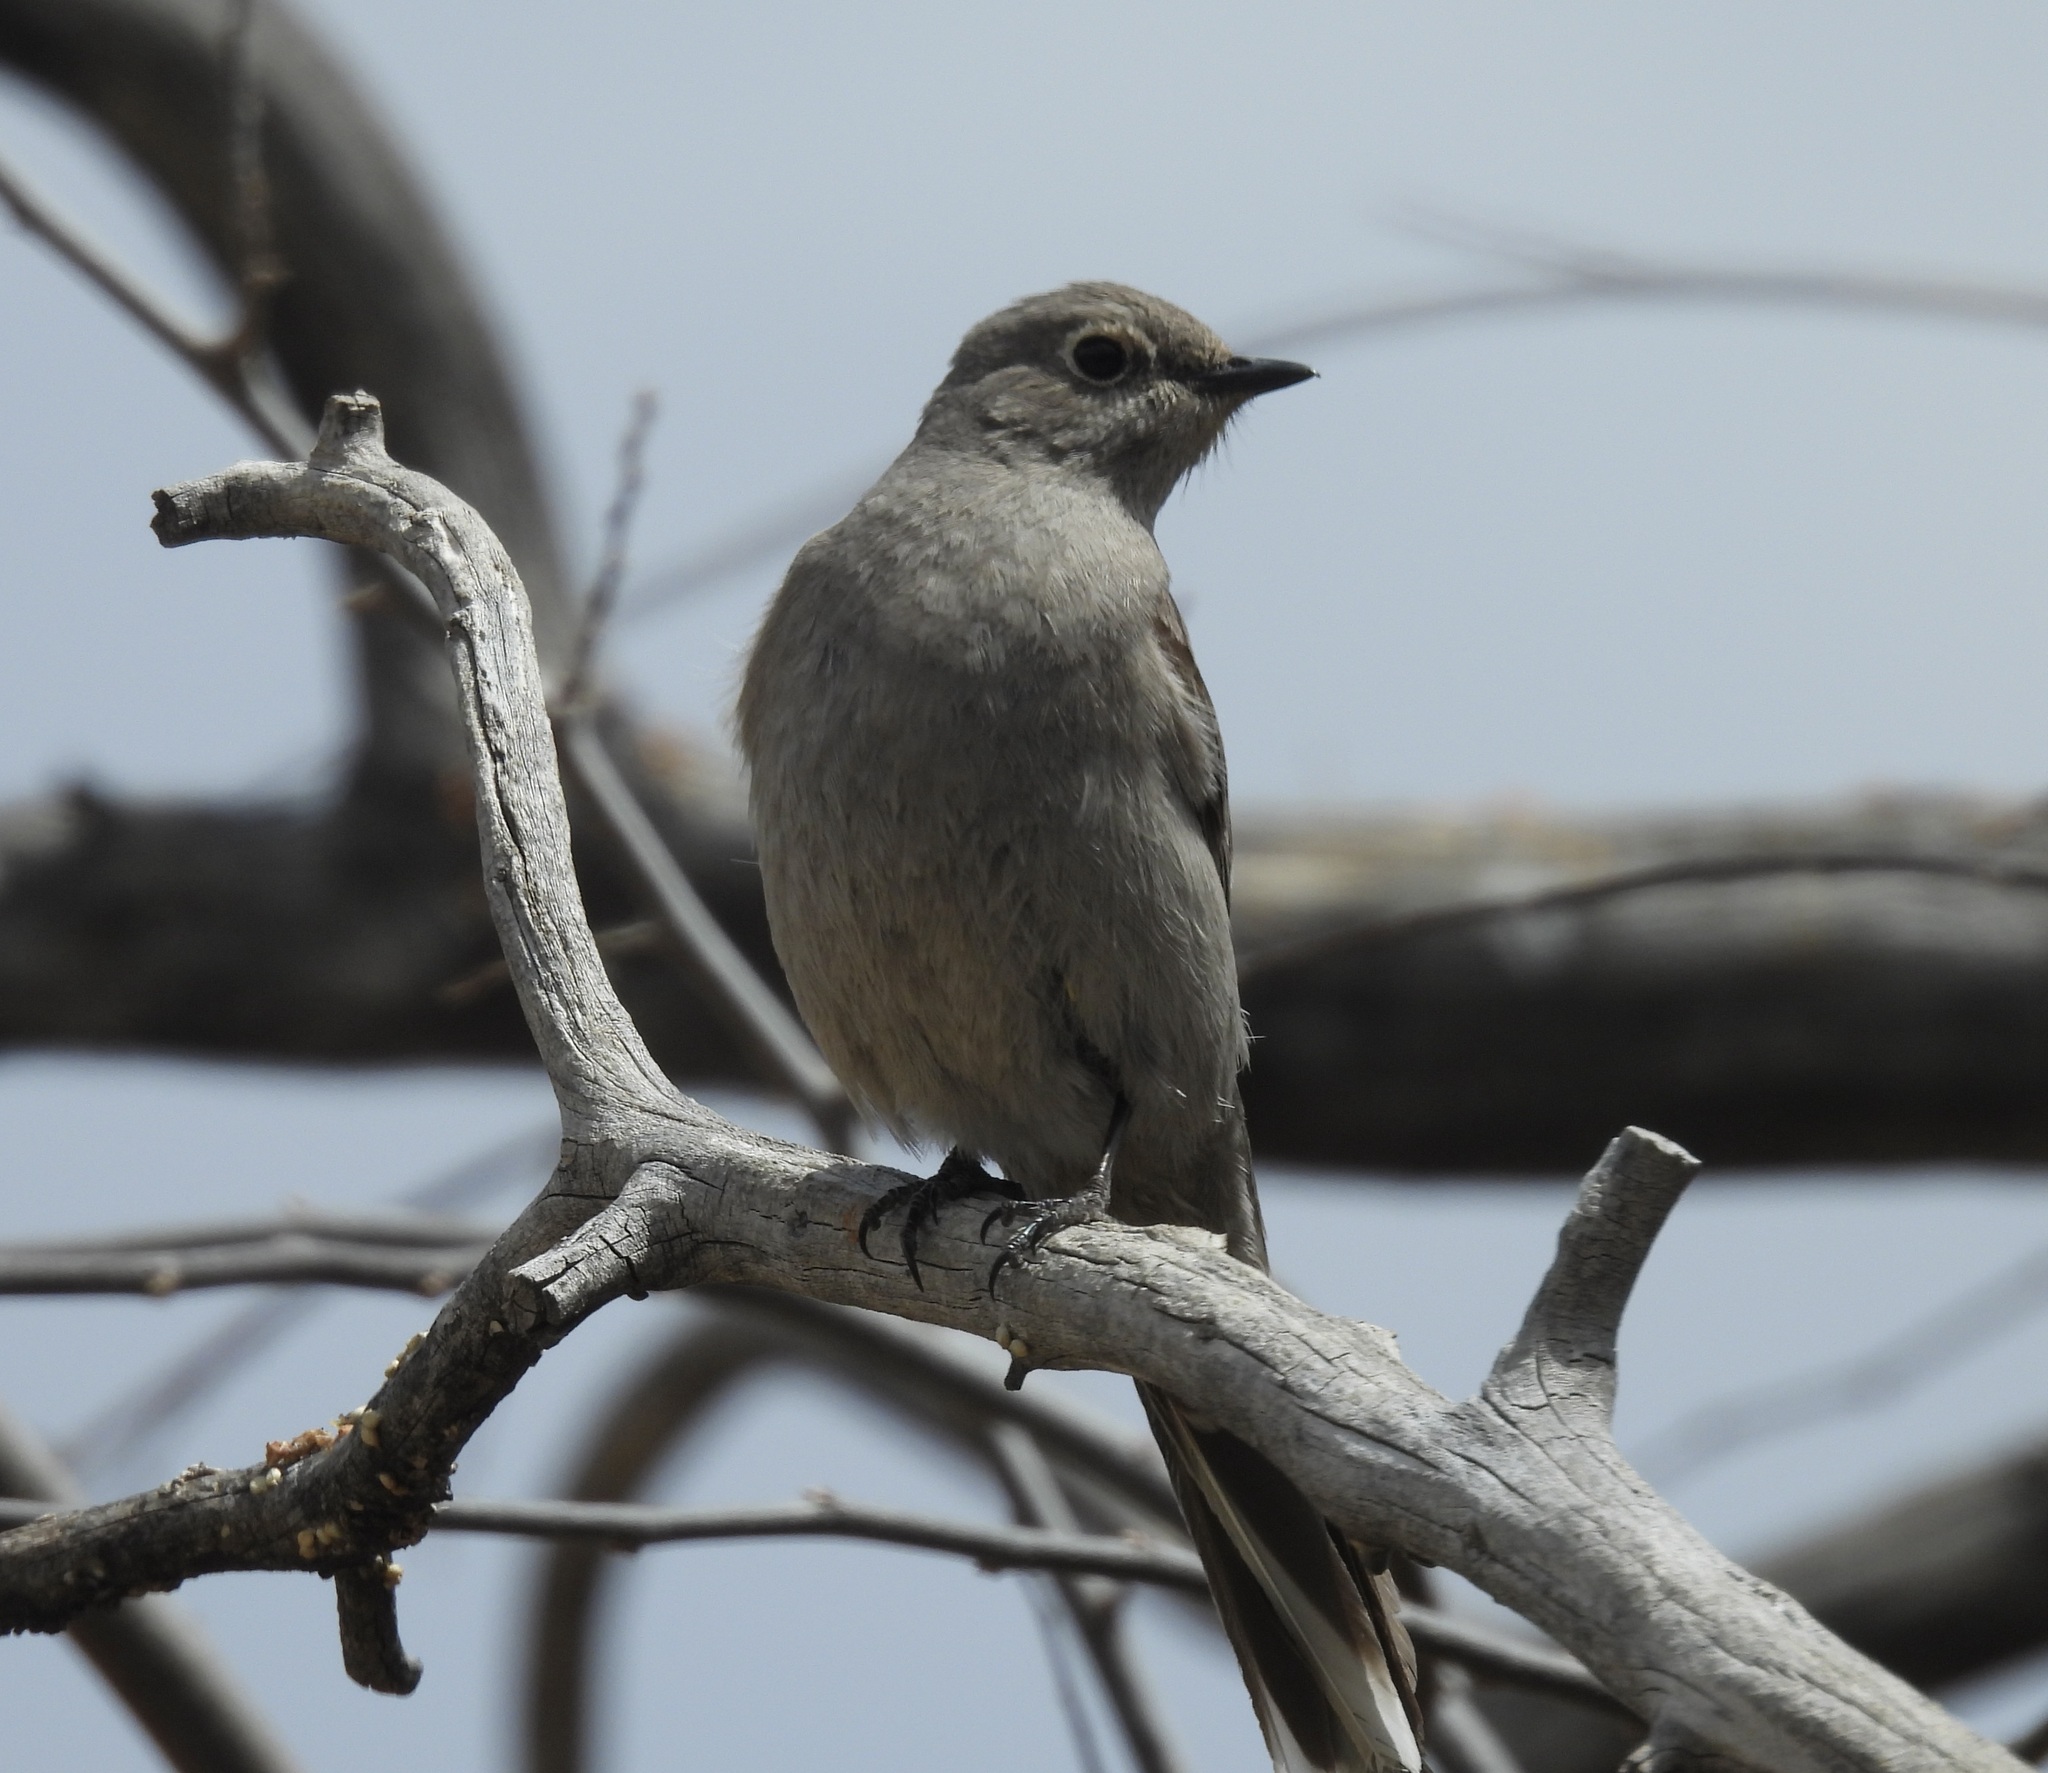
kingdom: Animalia
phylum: Chordata
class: Aves
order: Passeriformes
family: Turdidae
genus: Myadestes
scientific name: Myadestes townsendi
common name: Townsend's solitaire
